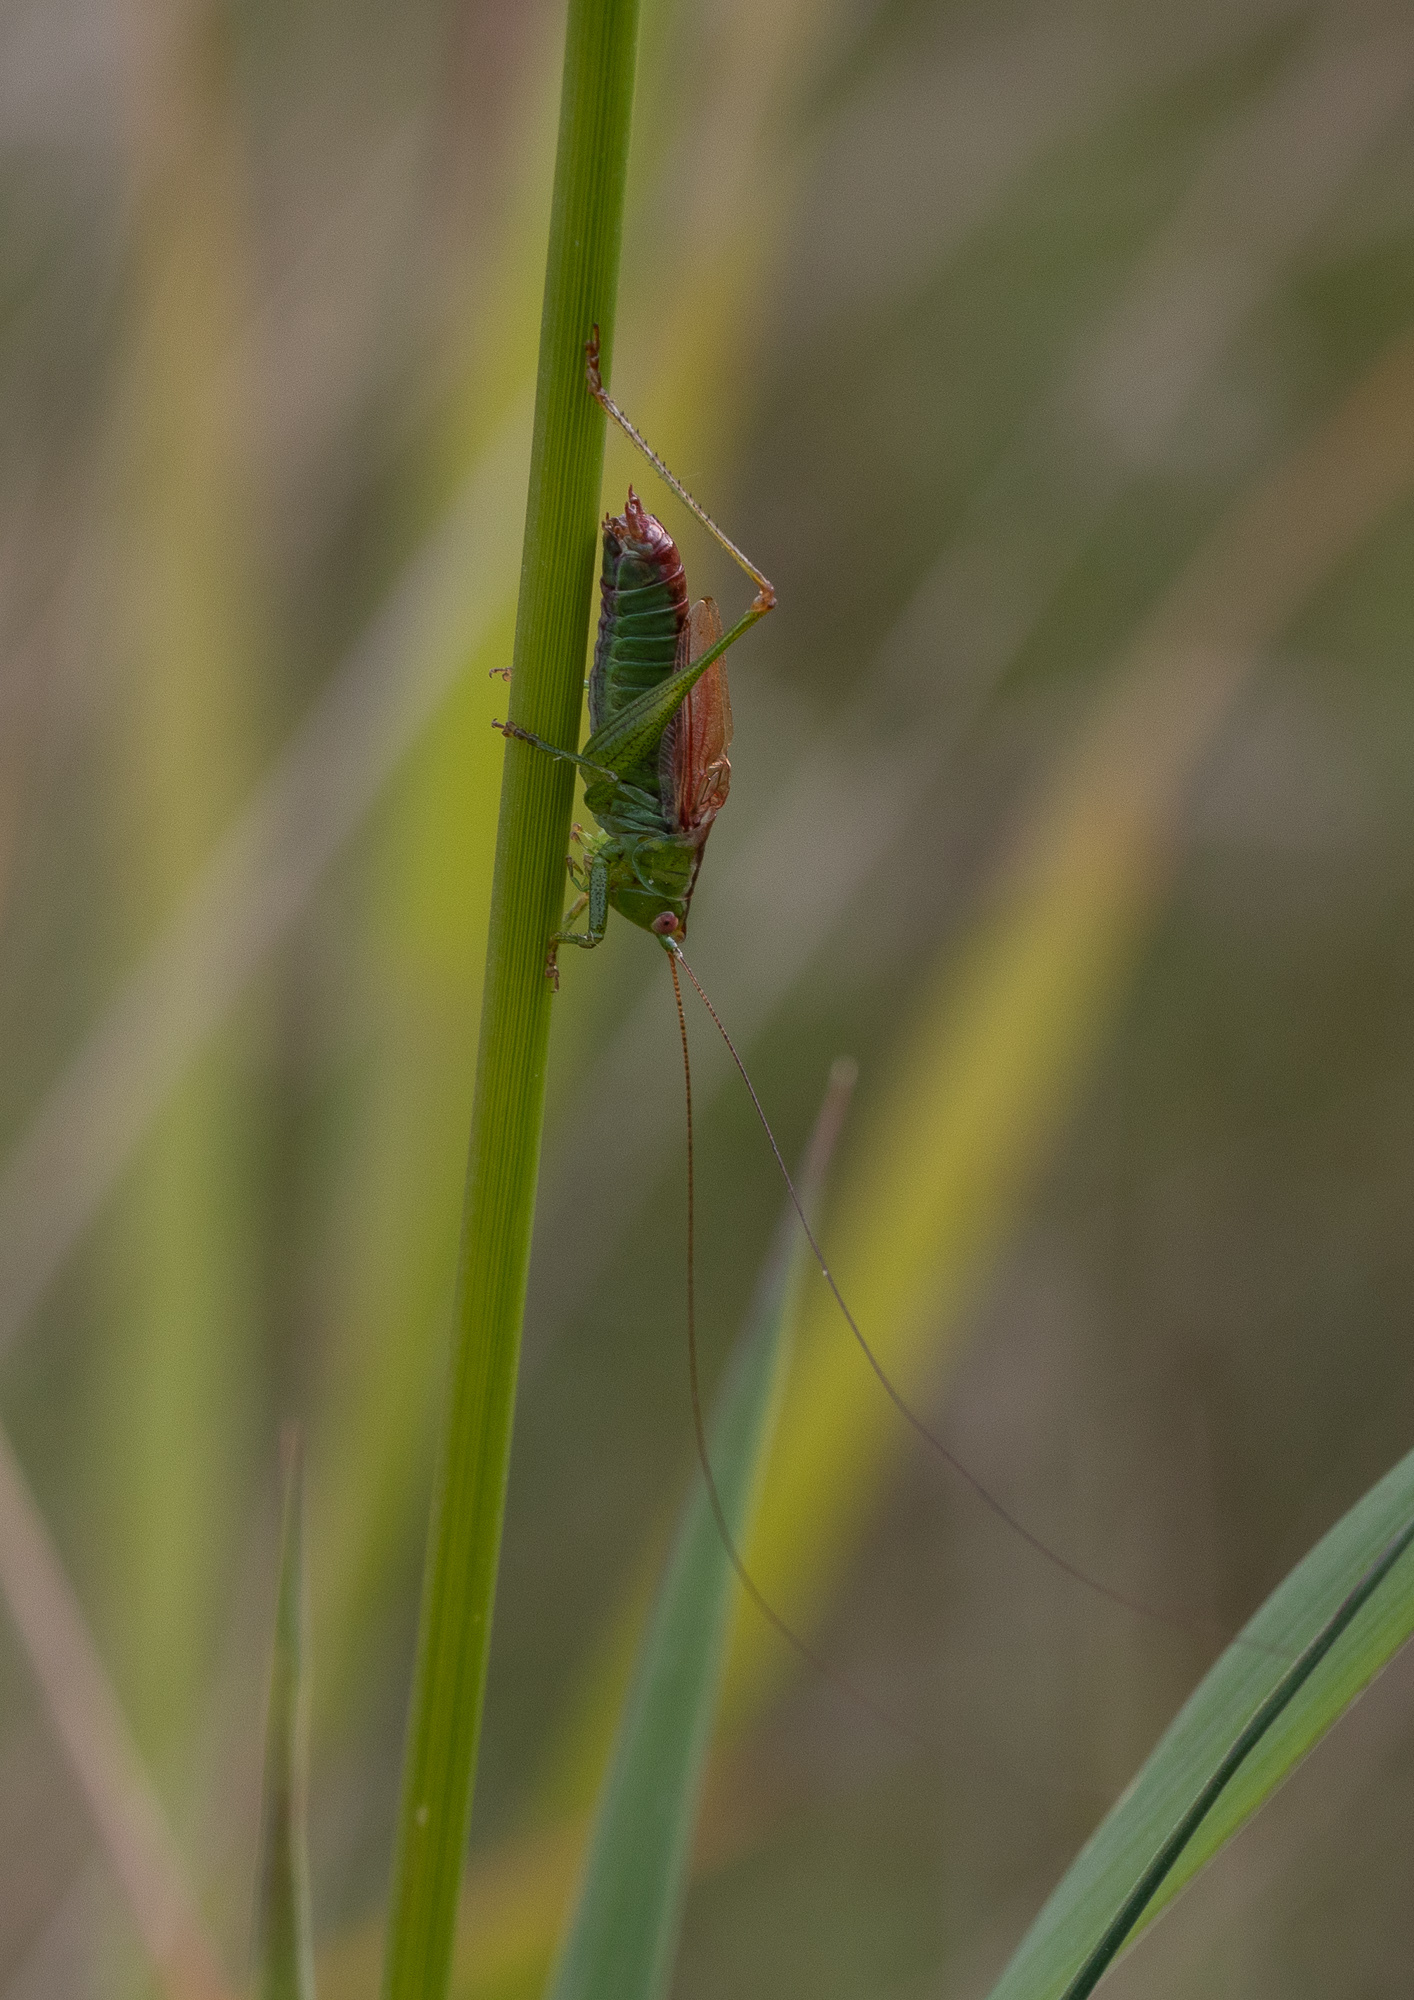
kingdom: Animalia
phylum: Arthropoda
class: Insecta
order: Orthoptera
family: Tettigoniidae
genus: Conocephalus
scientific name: Conocephalus dorsalis
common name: Short-winged conehead
